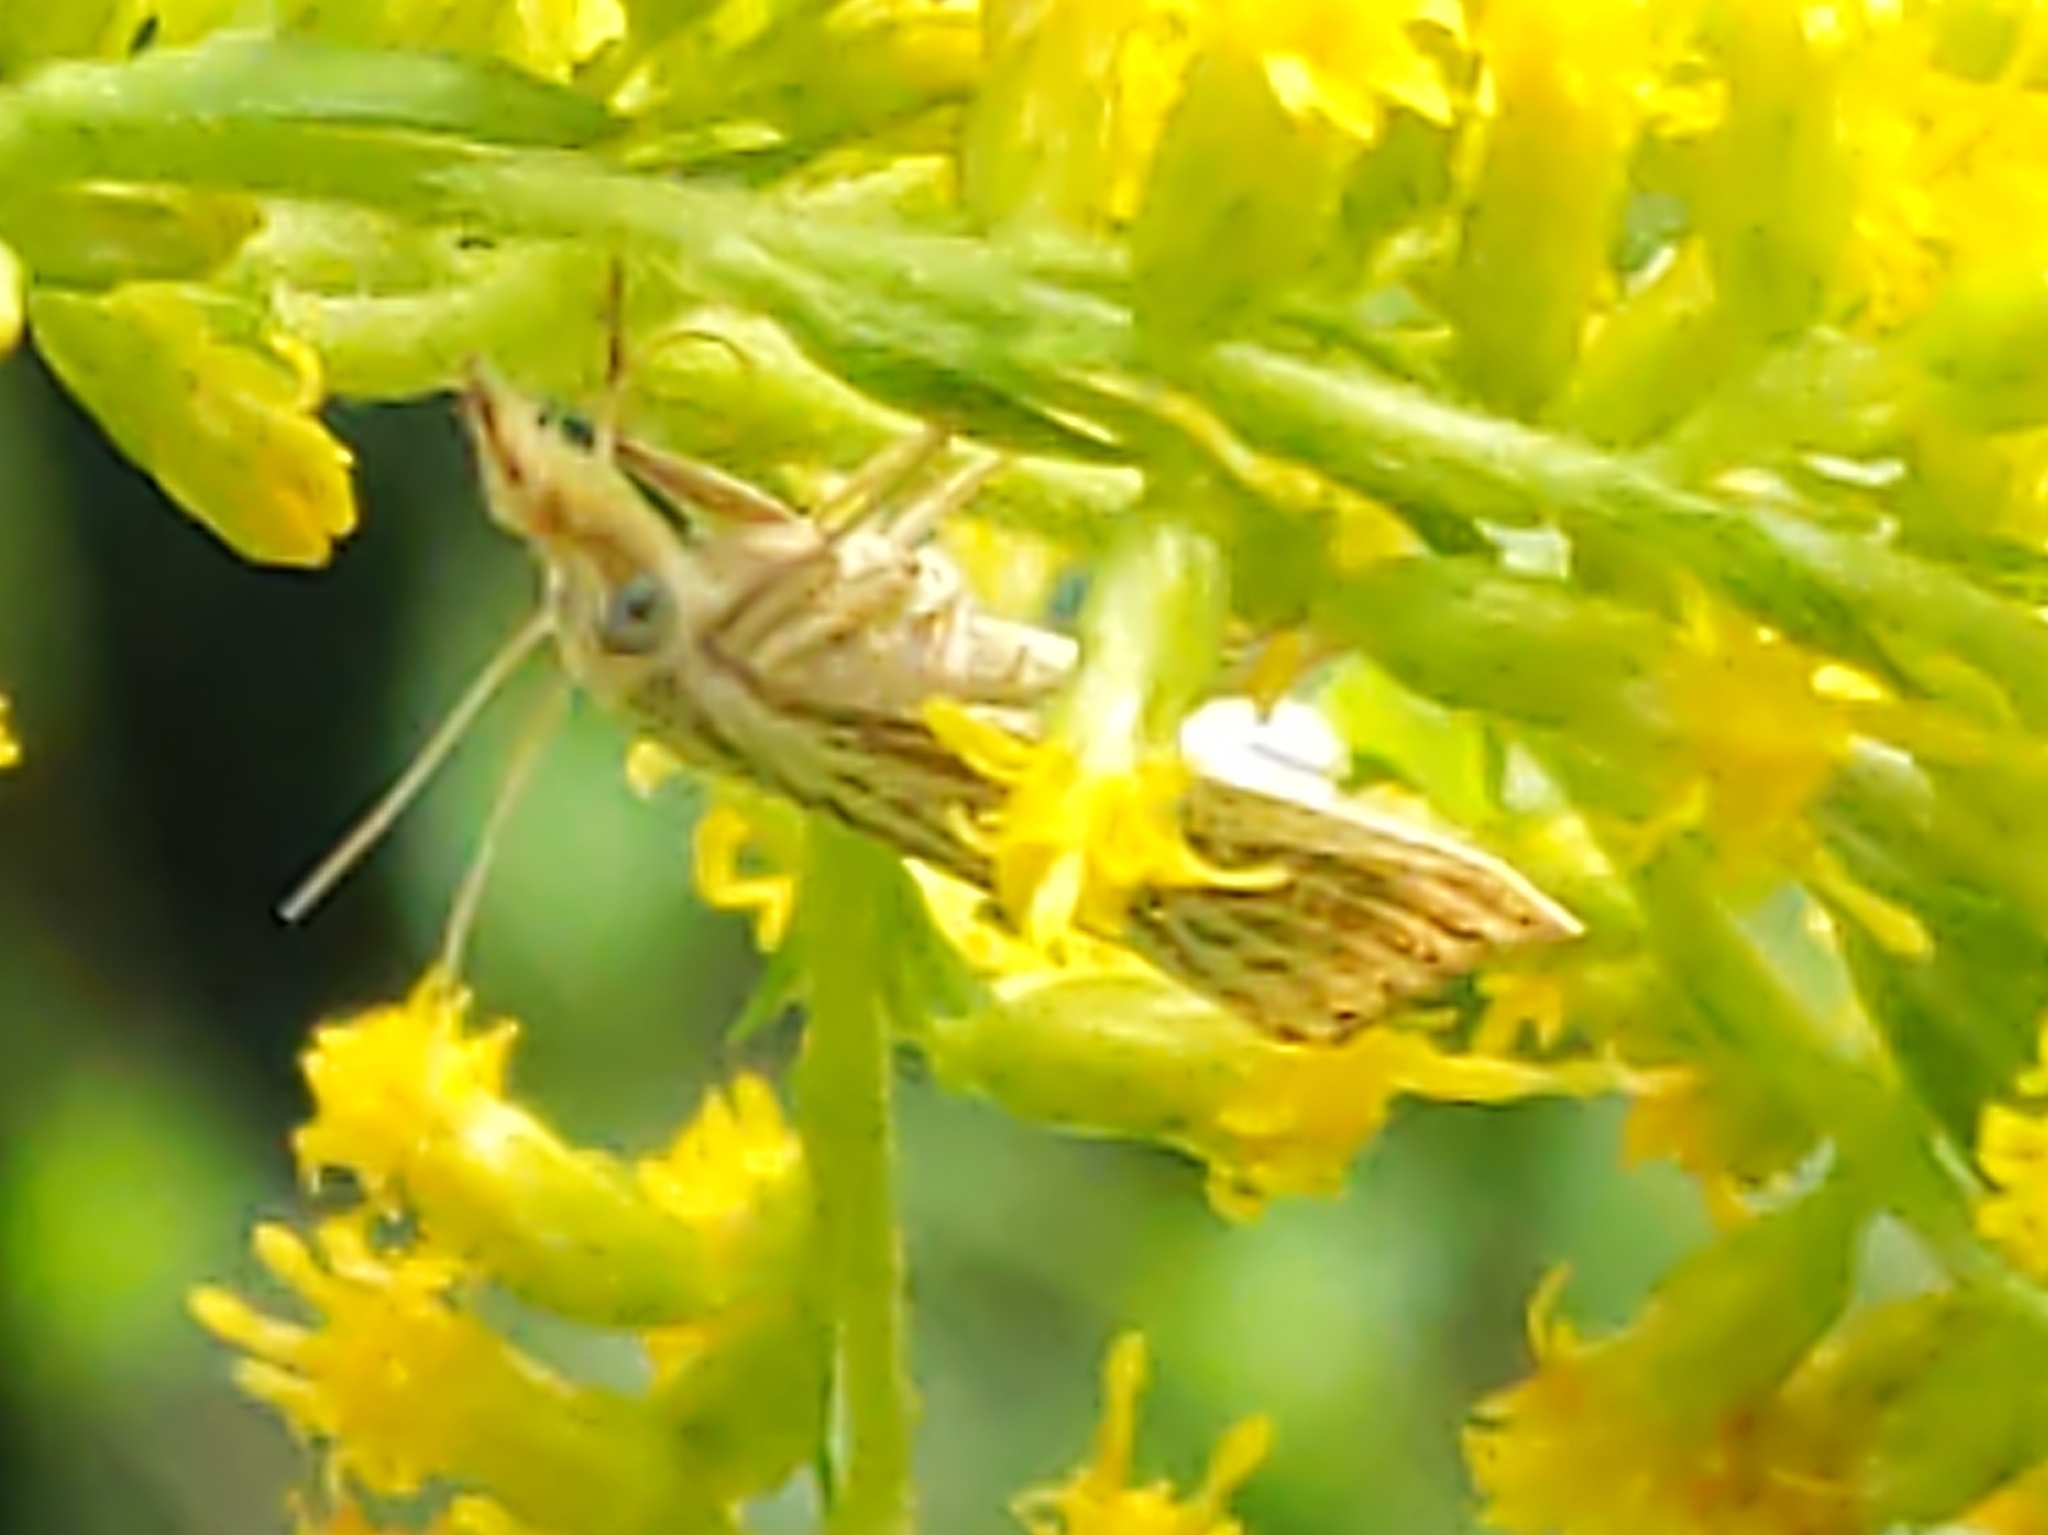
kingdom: Animalia
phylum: Arthropoda
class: Insecta
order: Lepidoptera
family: Crambidae
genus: Agriphila
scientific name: Agriphila vulgivagellus
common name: Vagabond crambus moth
